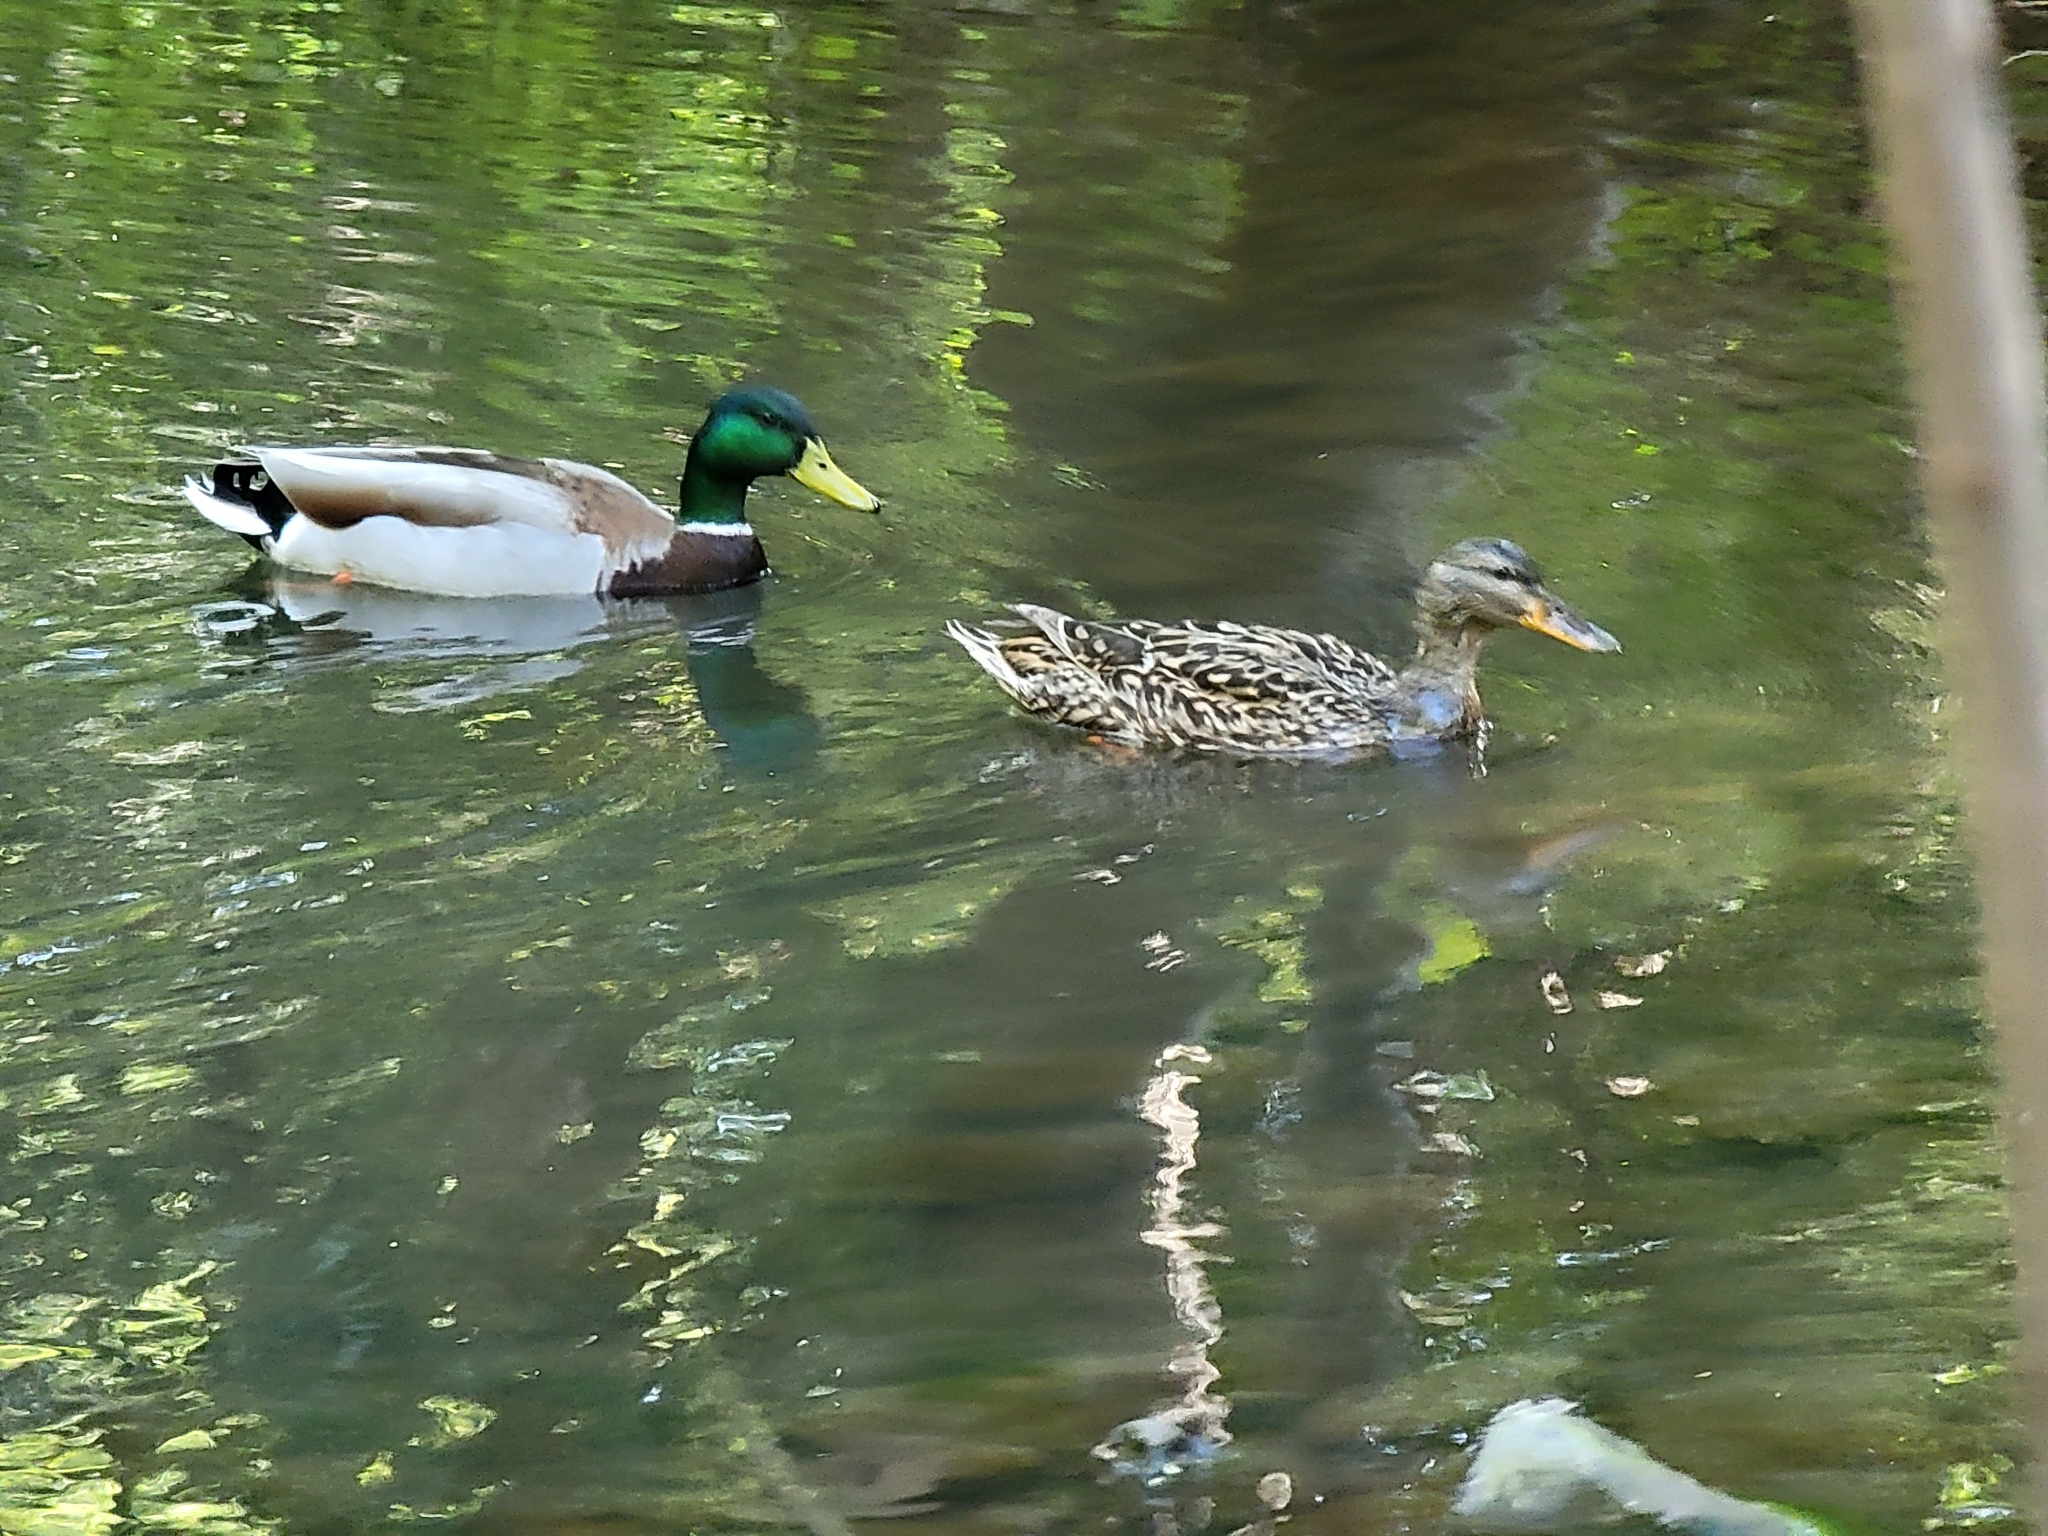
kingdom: Animalia
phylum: Chordata
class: Aves
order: Anseriformes
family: Anatidae
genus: Anas
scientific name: Anas platyrhynchos
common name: Mallard
